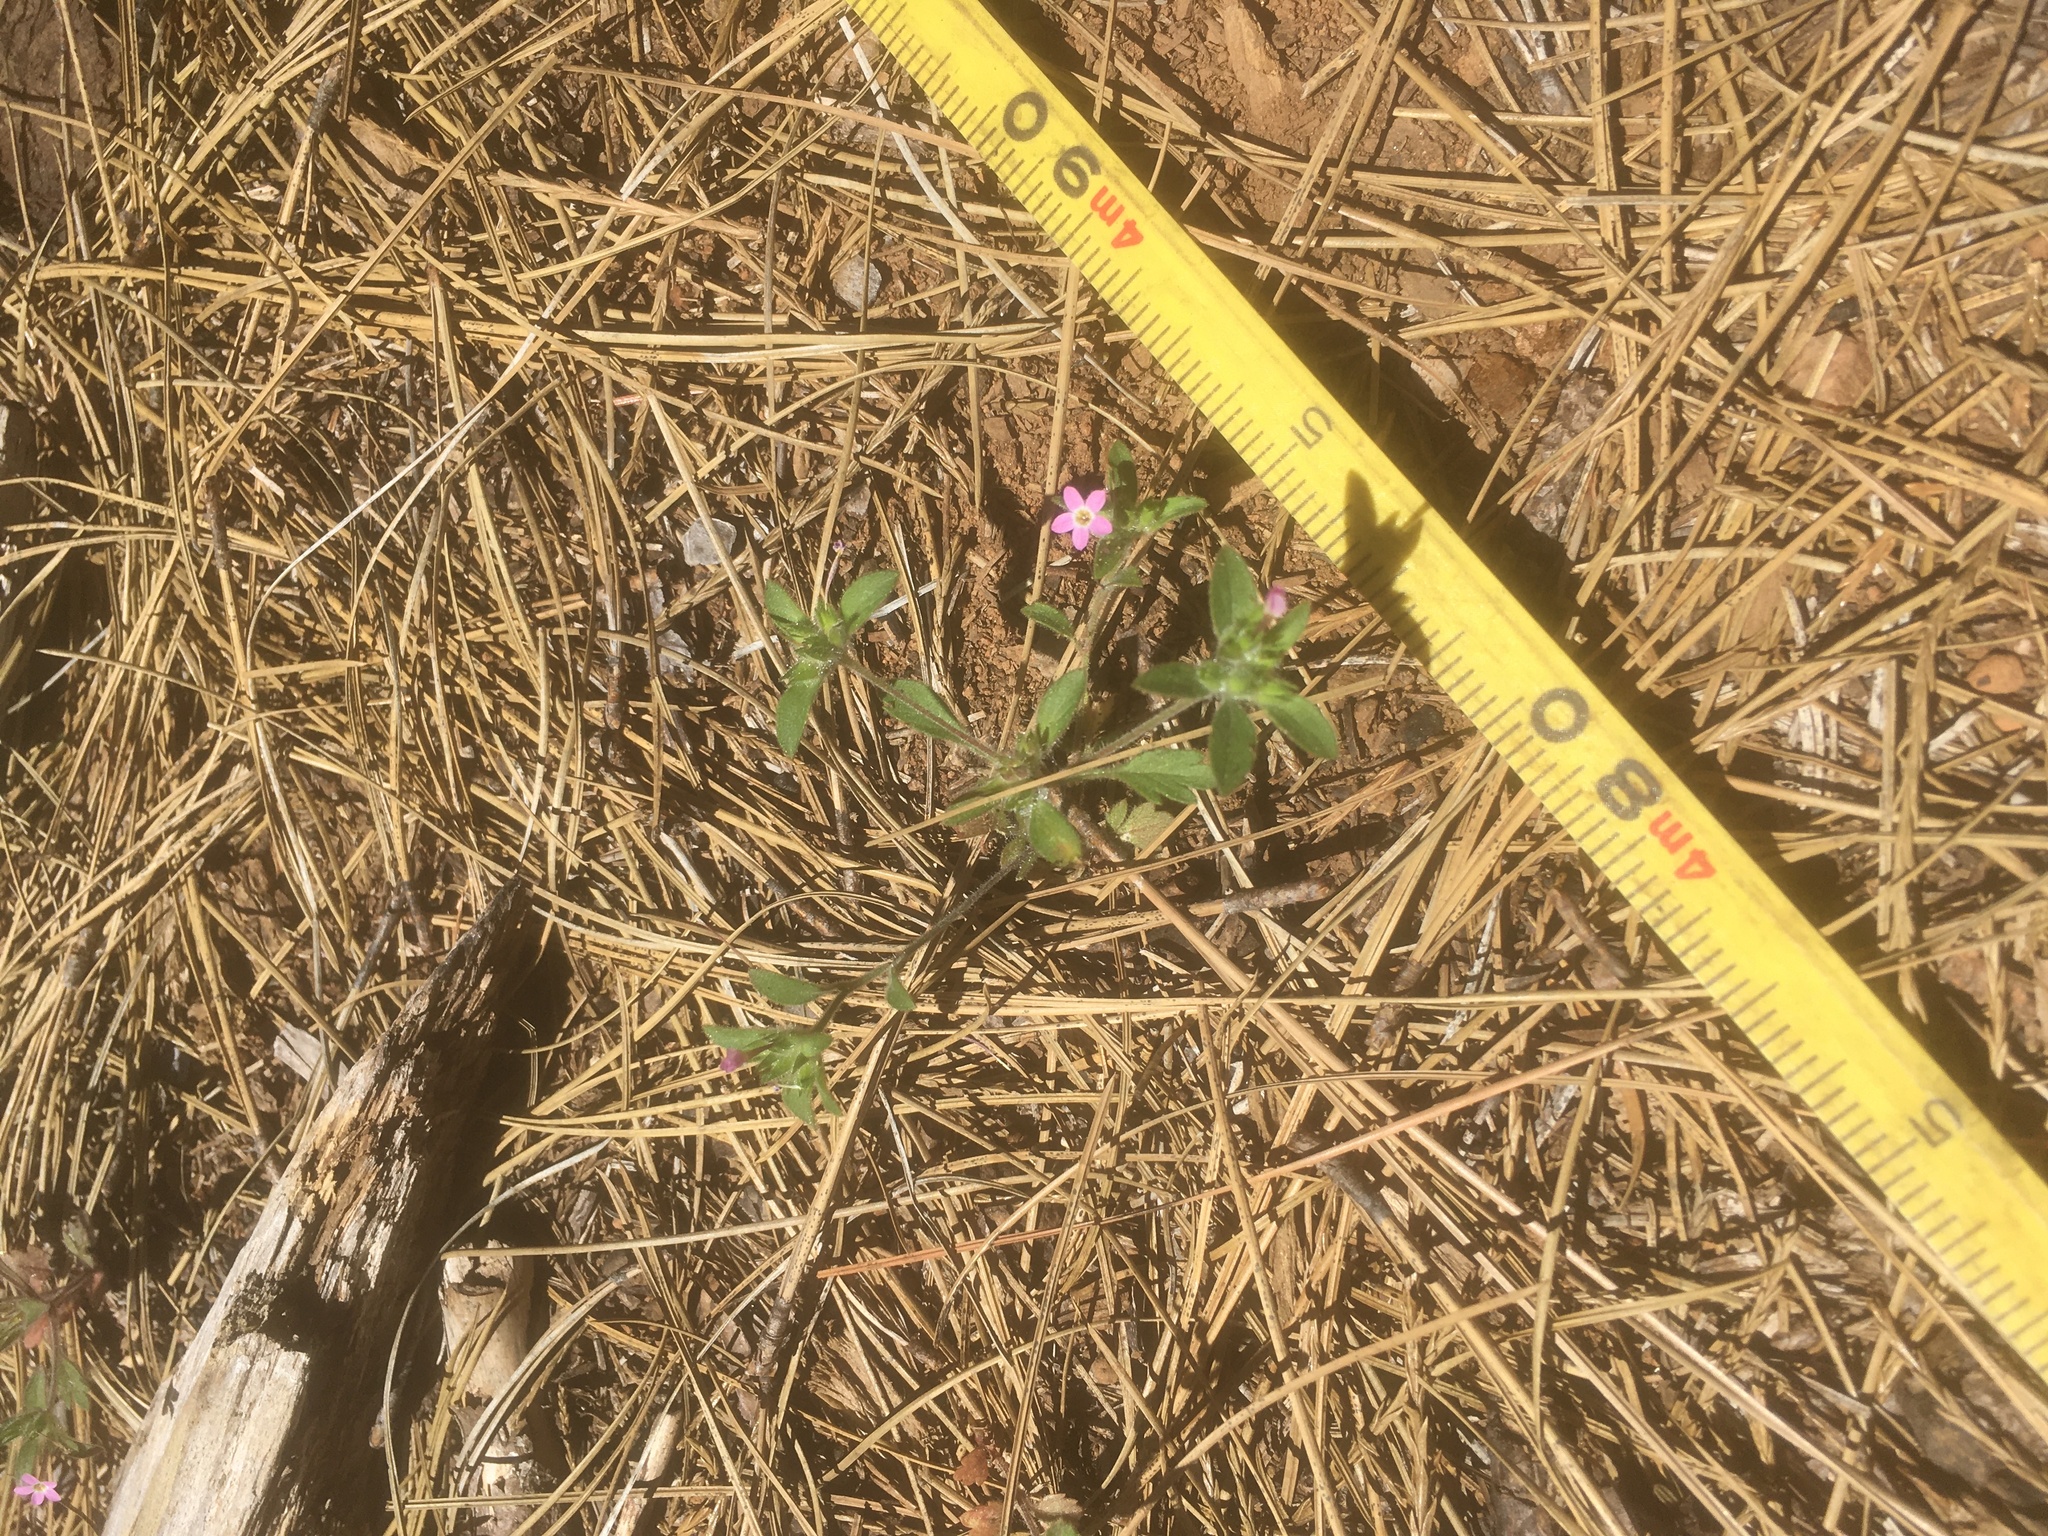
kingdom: Plantae
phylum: Tracheophyta
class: Magnoliopsida
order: Ericales
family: Polemoniaceae
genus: Collomia
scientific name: Collomia heterophylla
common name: Variable-leaved collomia
